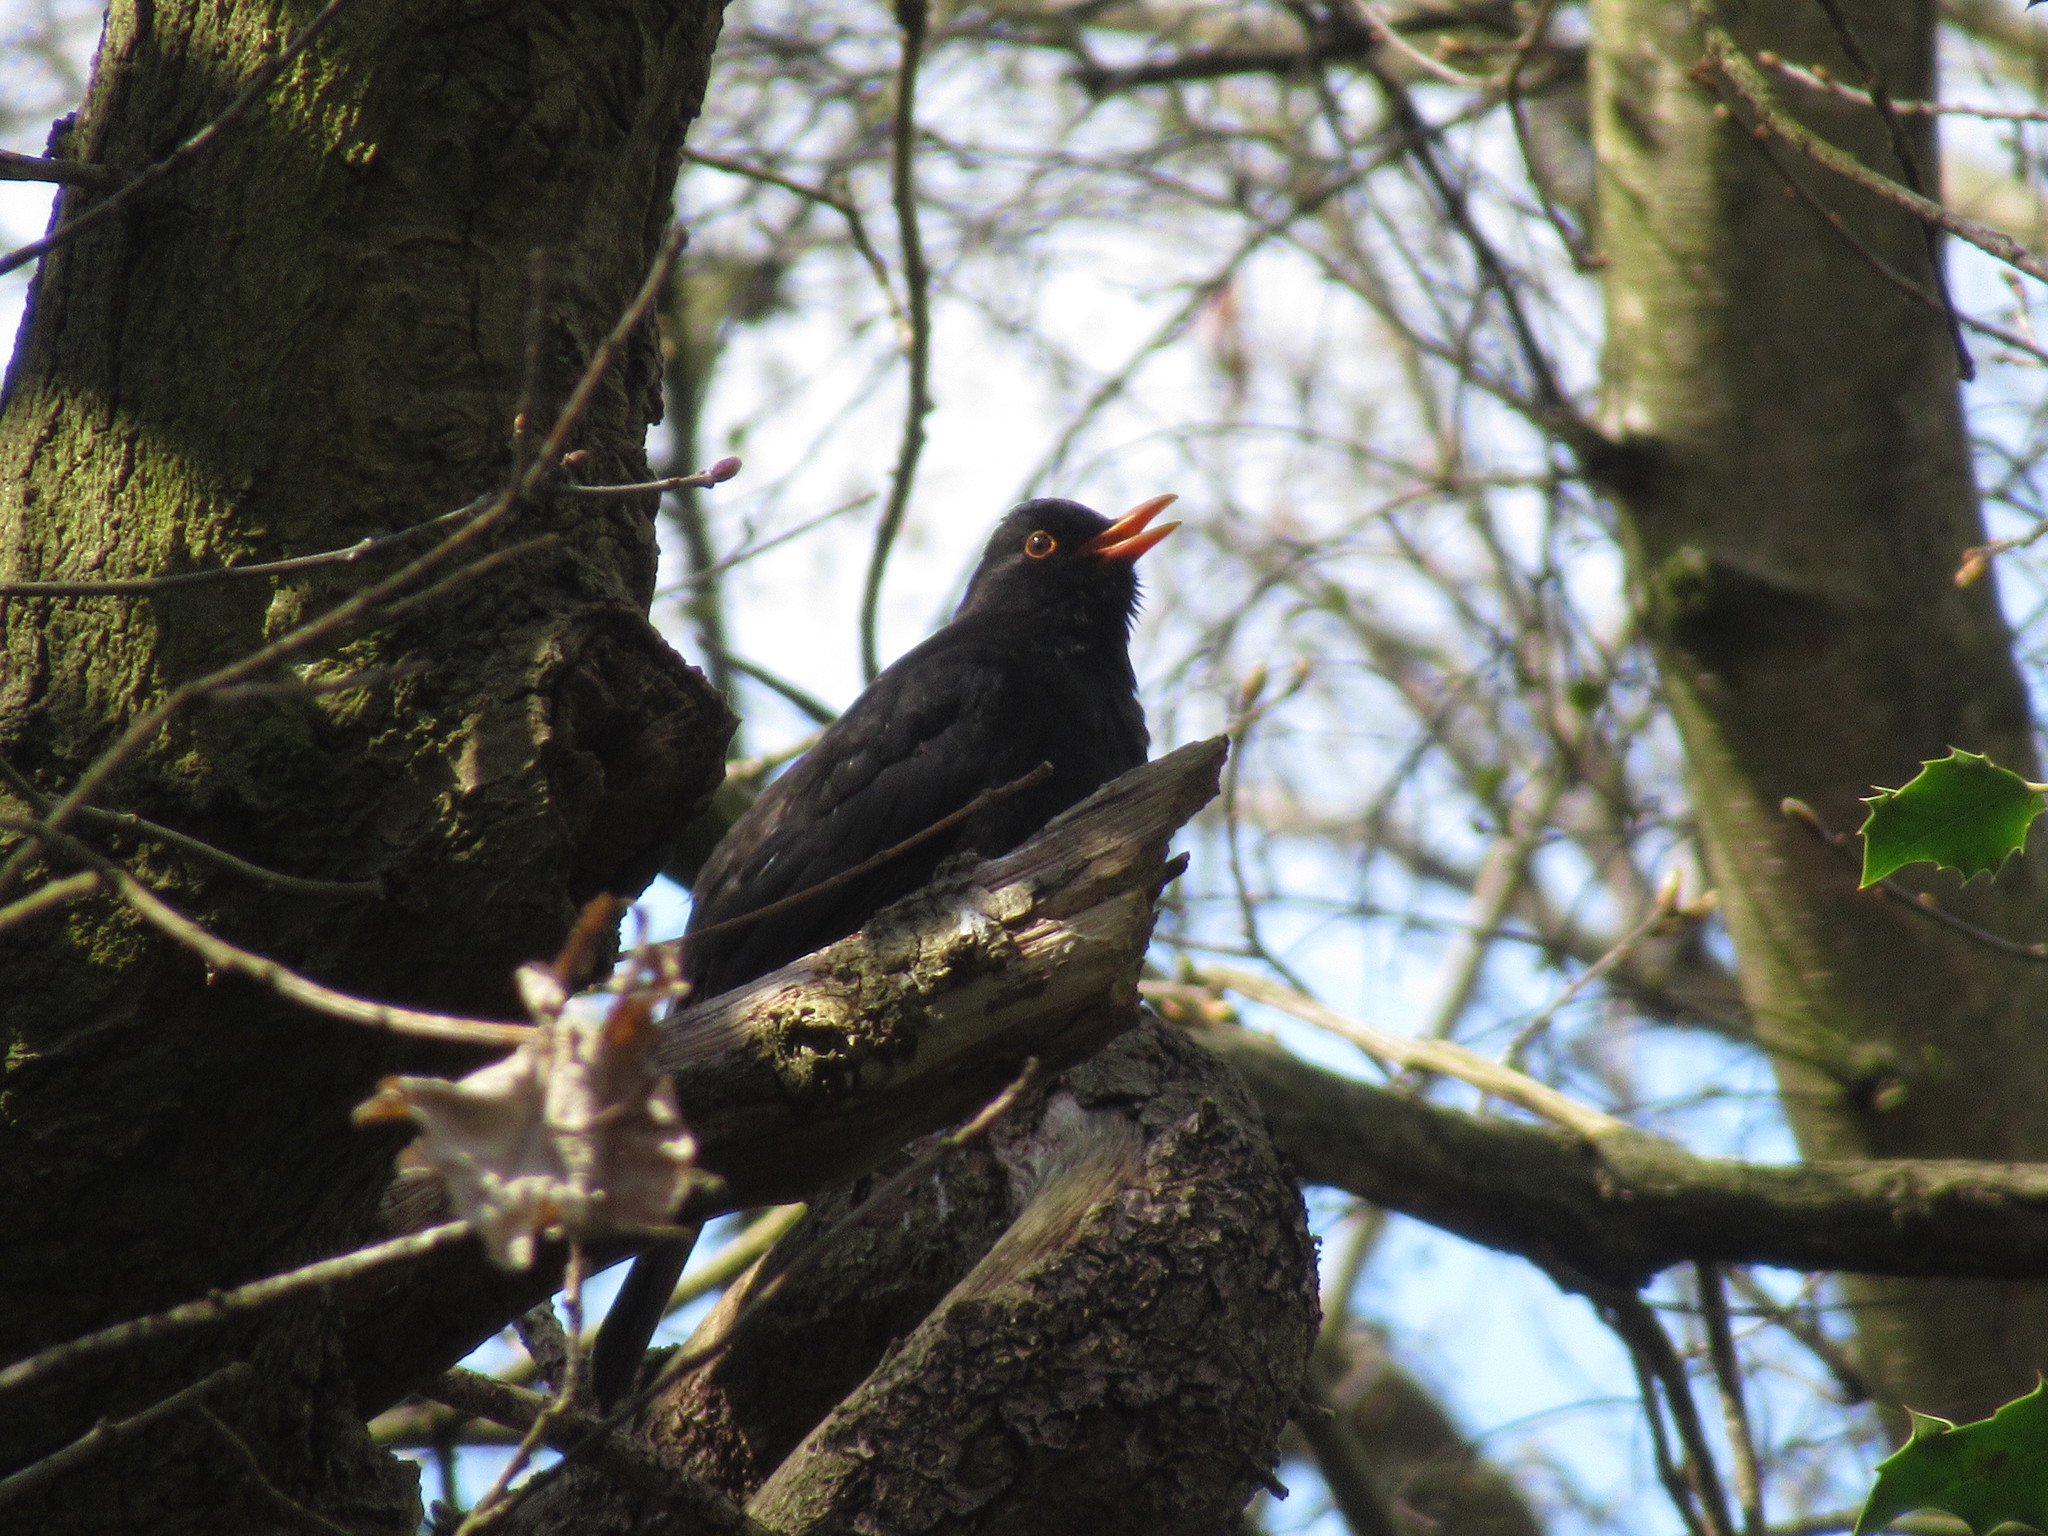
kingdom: Animalia
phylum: Chordata
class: Aves
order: Passeriformes
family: Turdidae
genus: Turdus
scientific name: Turdus merula
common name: Common blackbird
